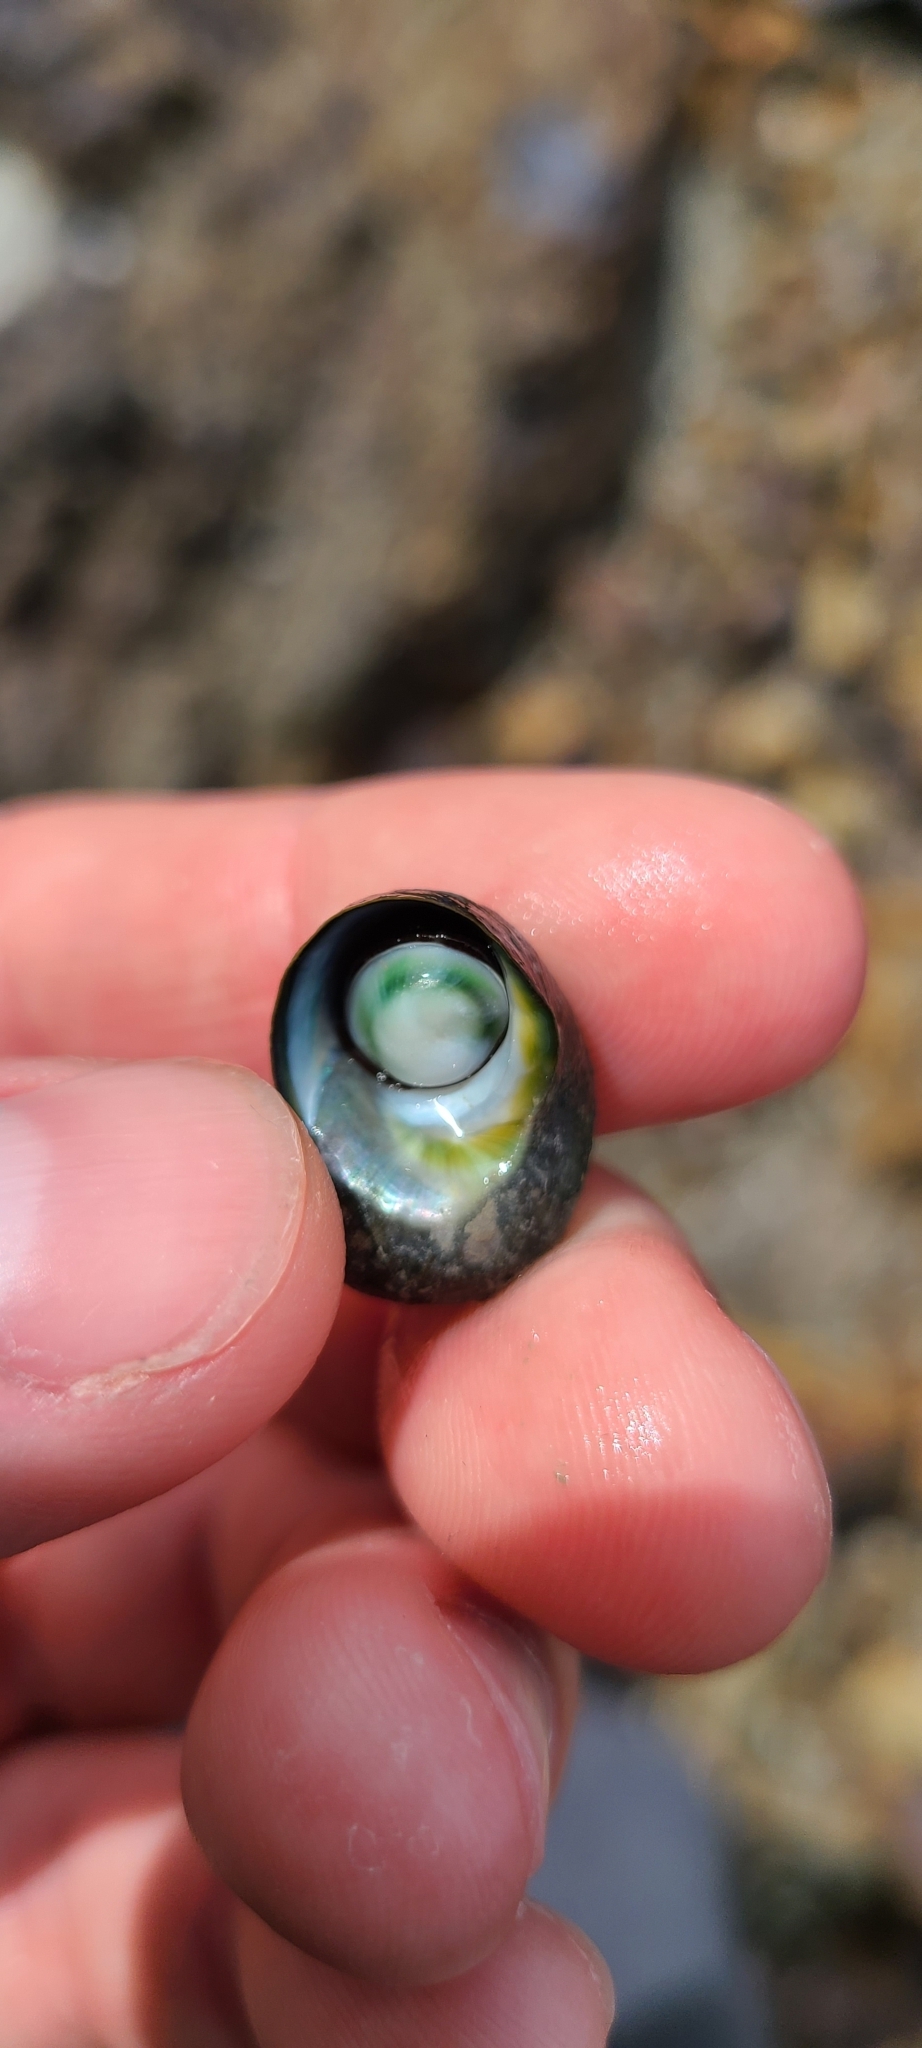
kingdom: Animalia
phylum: Mollusca
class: Gastropoda
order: Trochida
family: Turbinidae
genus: Lunella
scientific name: Lunella smaragda
